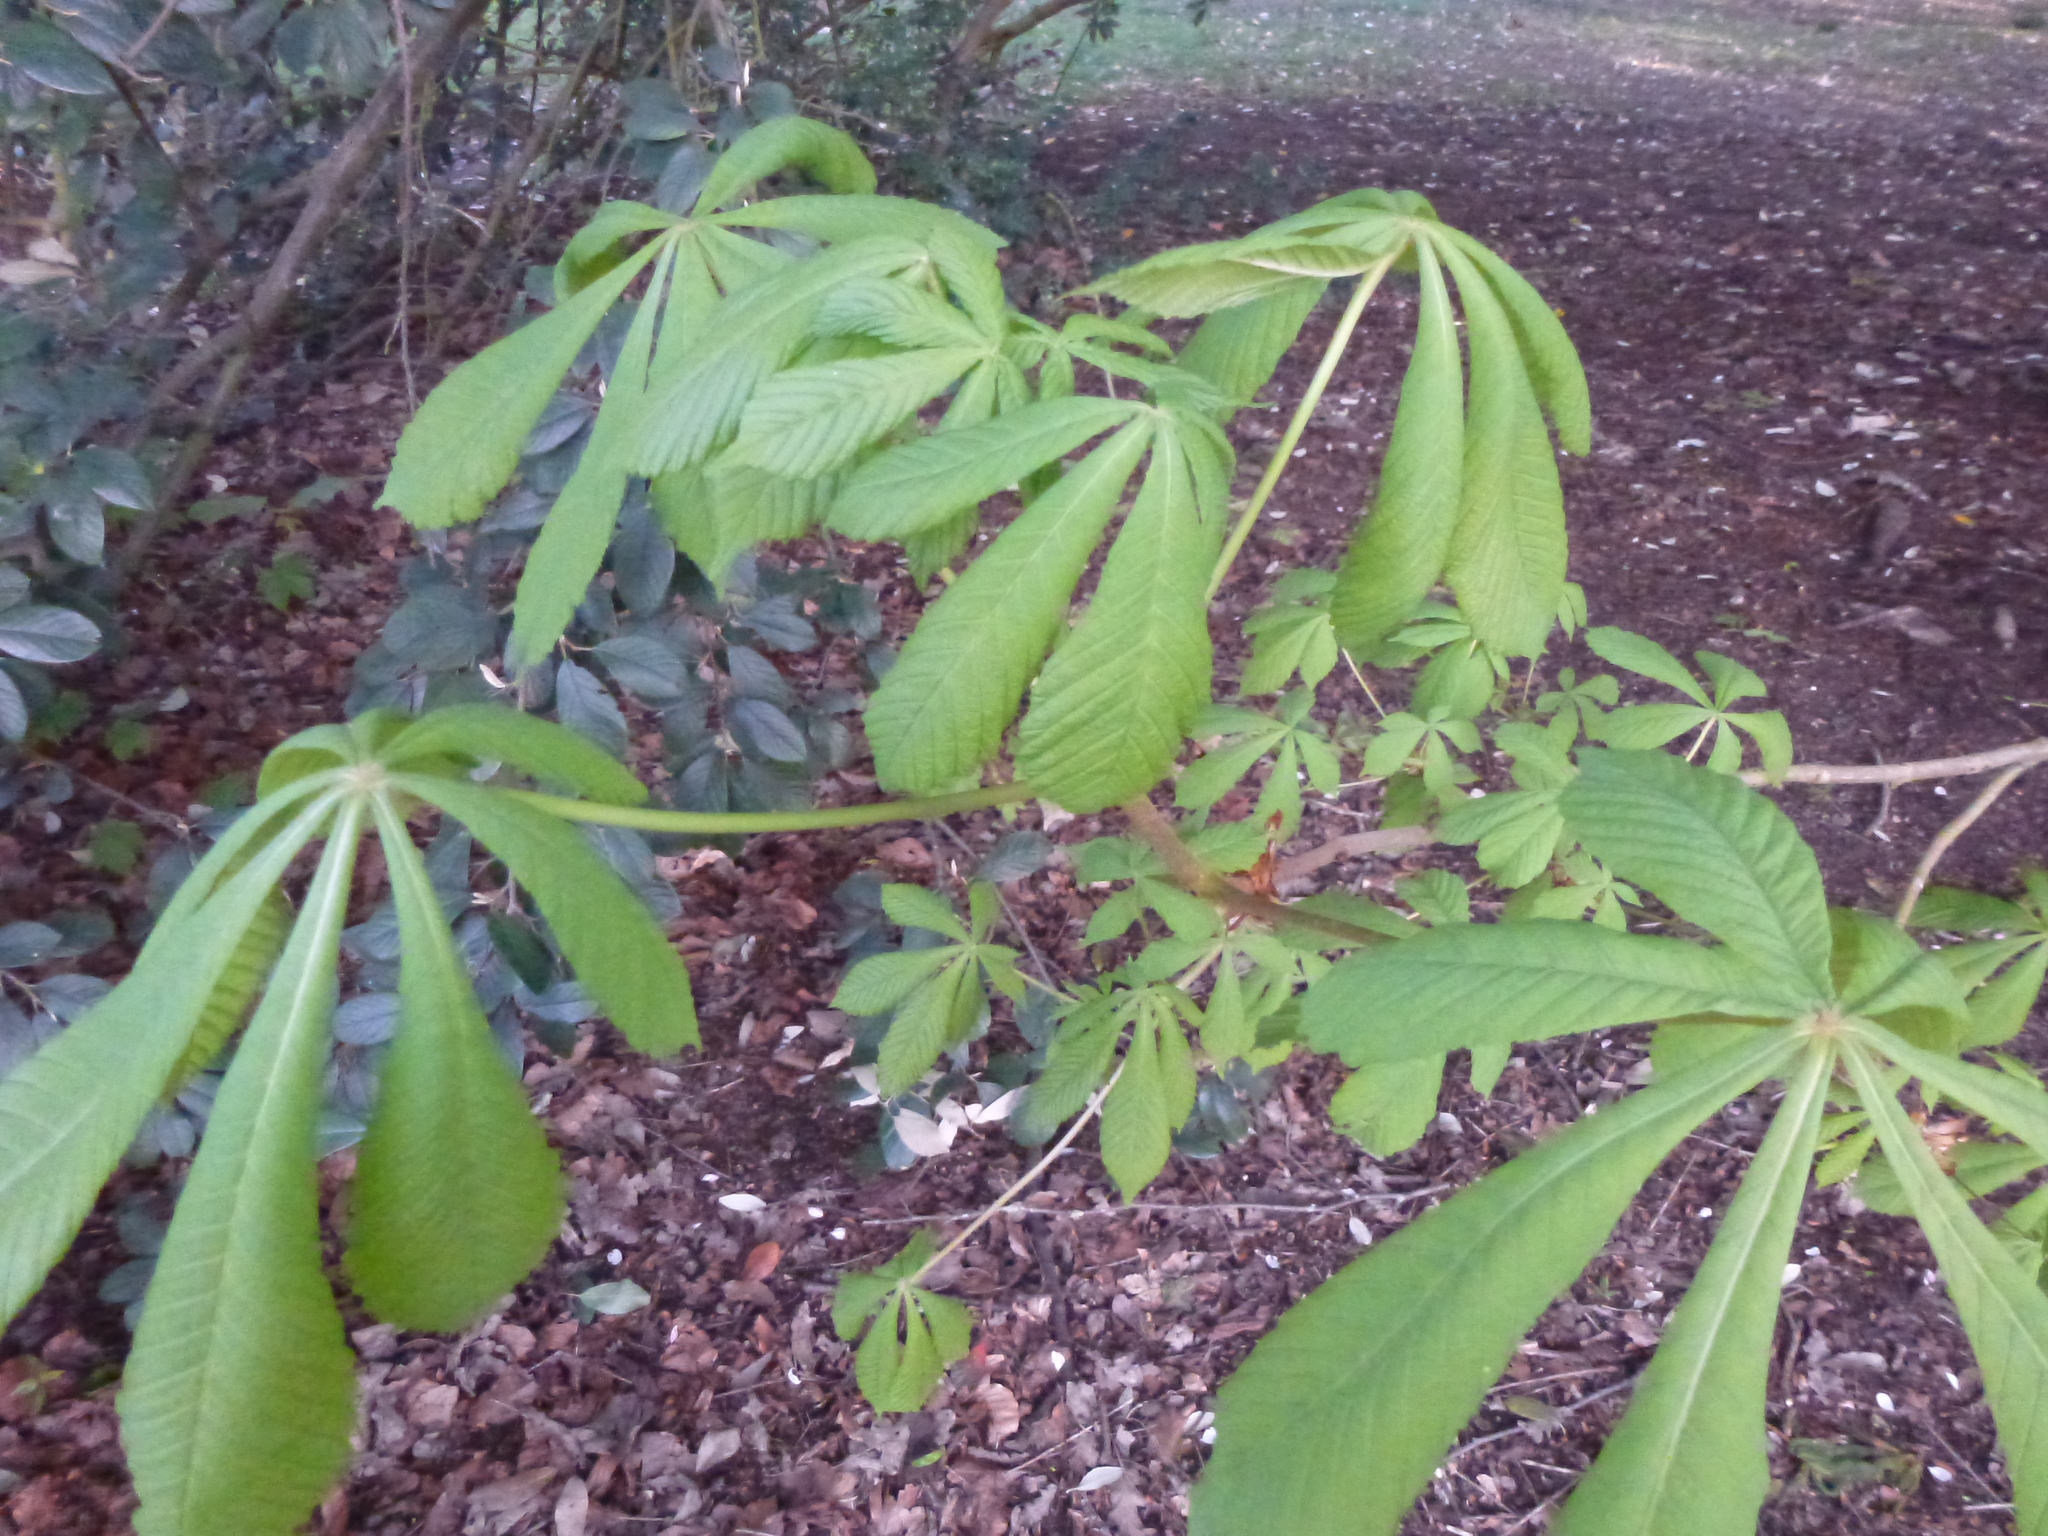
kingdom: Plantae
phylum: Tracheophyta
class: Magnoliopsida
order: Sapindales
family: Sapindaceae
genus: Aesculus
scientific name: Aesculus hippocastanum
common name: Horse-chestnut
